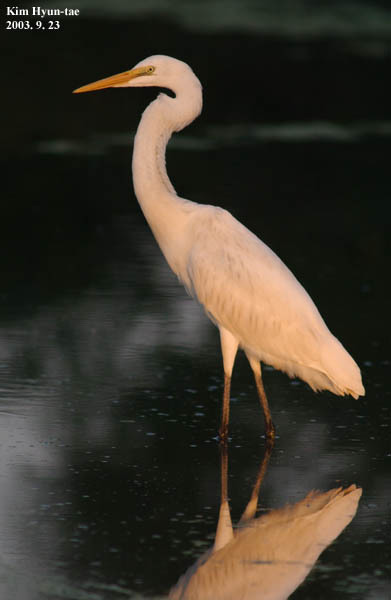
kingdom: Animalia
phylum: Chordata
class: Aves
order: Pelecaniformes
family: Ardeidae
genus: Ardea
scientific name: Ardea alba
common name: Great egret
